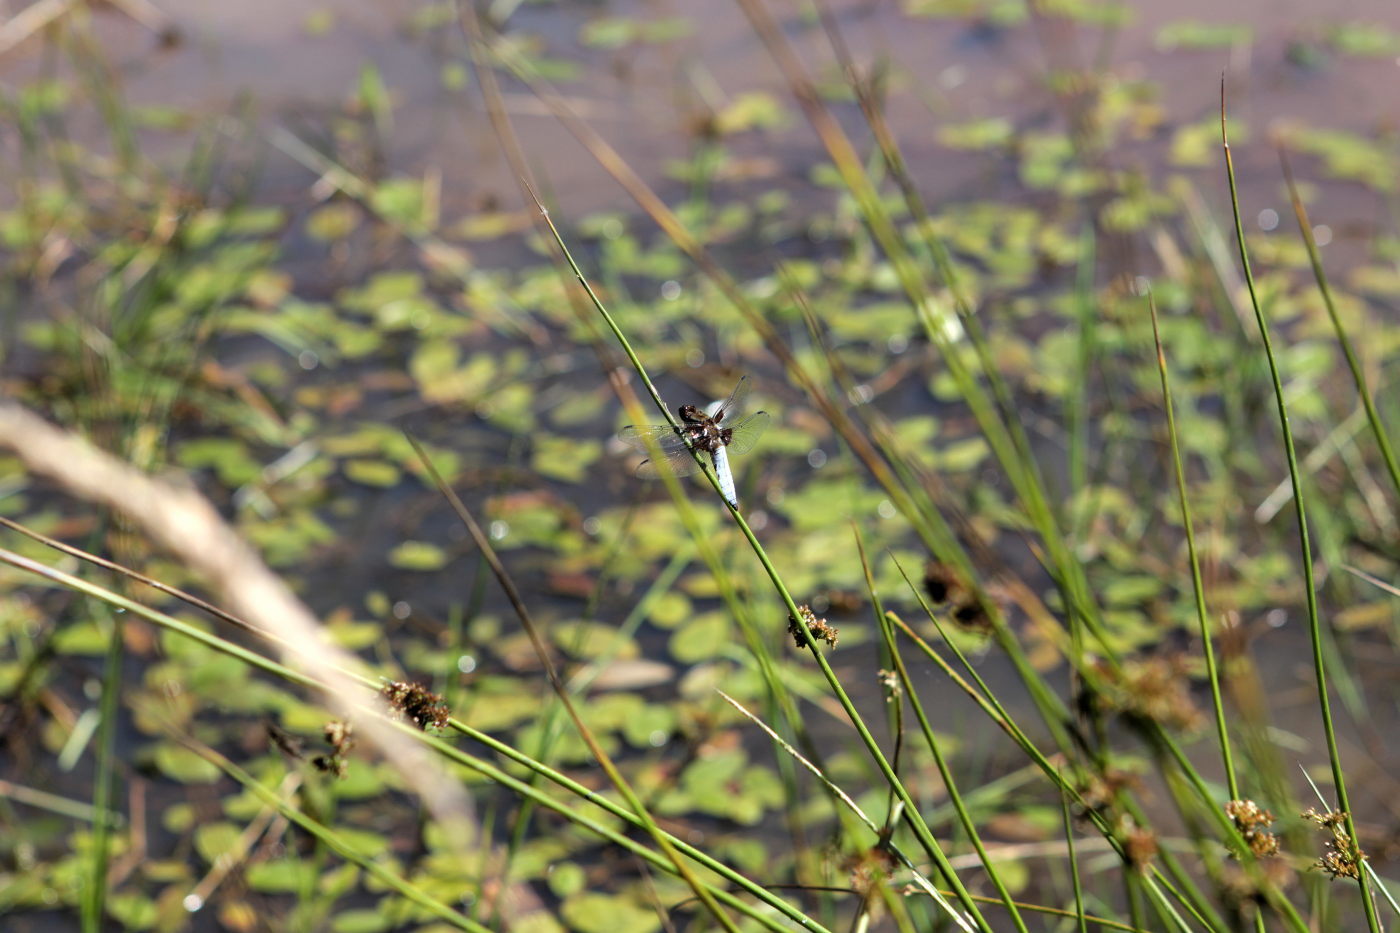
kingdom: Animalia
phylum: Arthropoda
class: Insecta
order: Odonata
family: Libellulidae
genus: Libellula
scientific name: Libellula depressa
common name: Broad-bodied chaser
